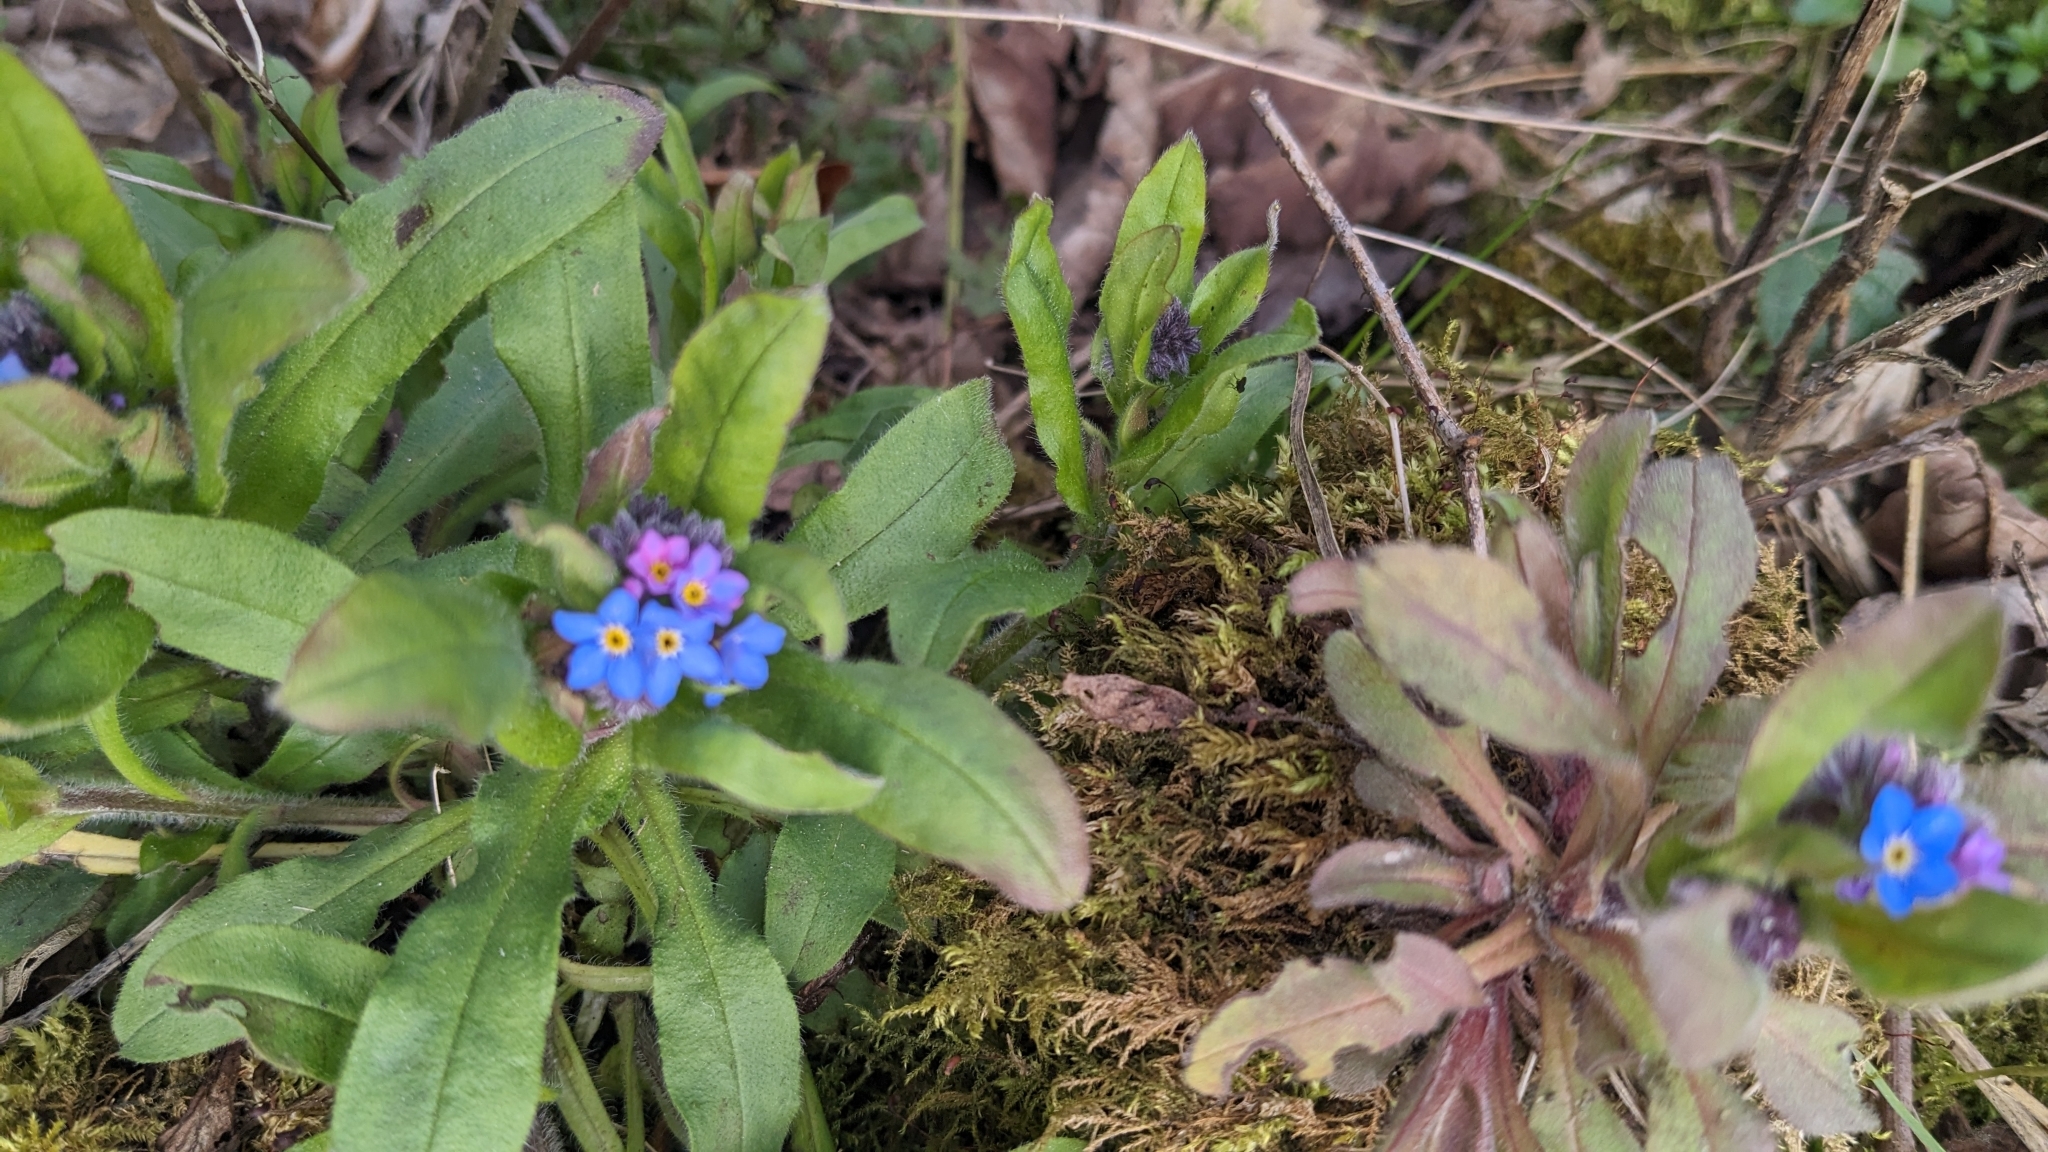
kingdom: Plantae
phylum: Tracheophyta
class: Magnoliopsida
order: Boraginales
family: Boraginaceae
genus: Myosotis
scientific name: Myosotis sylvatica
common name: Wood forget-me-not
